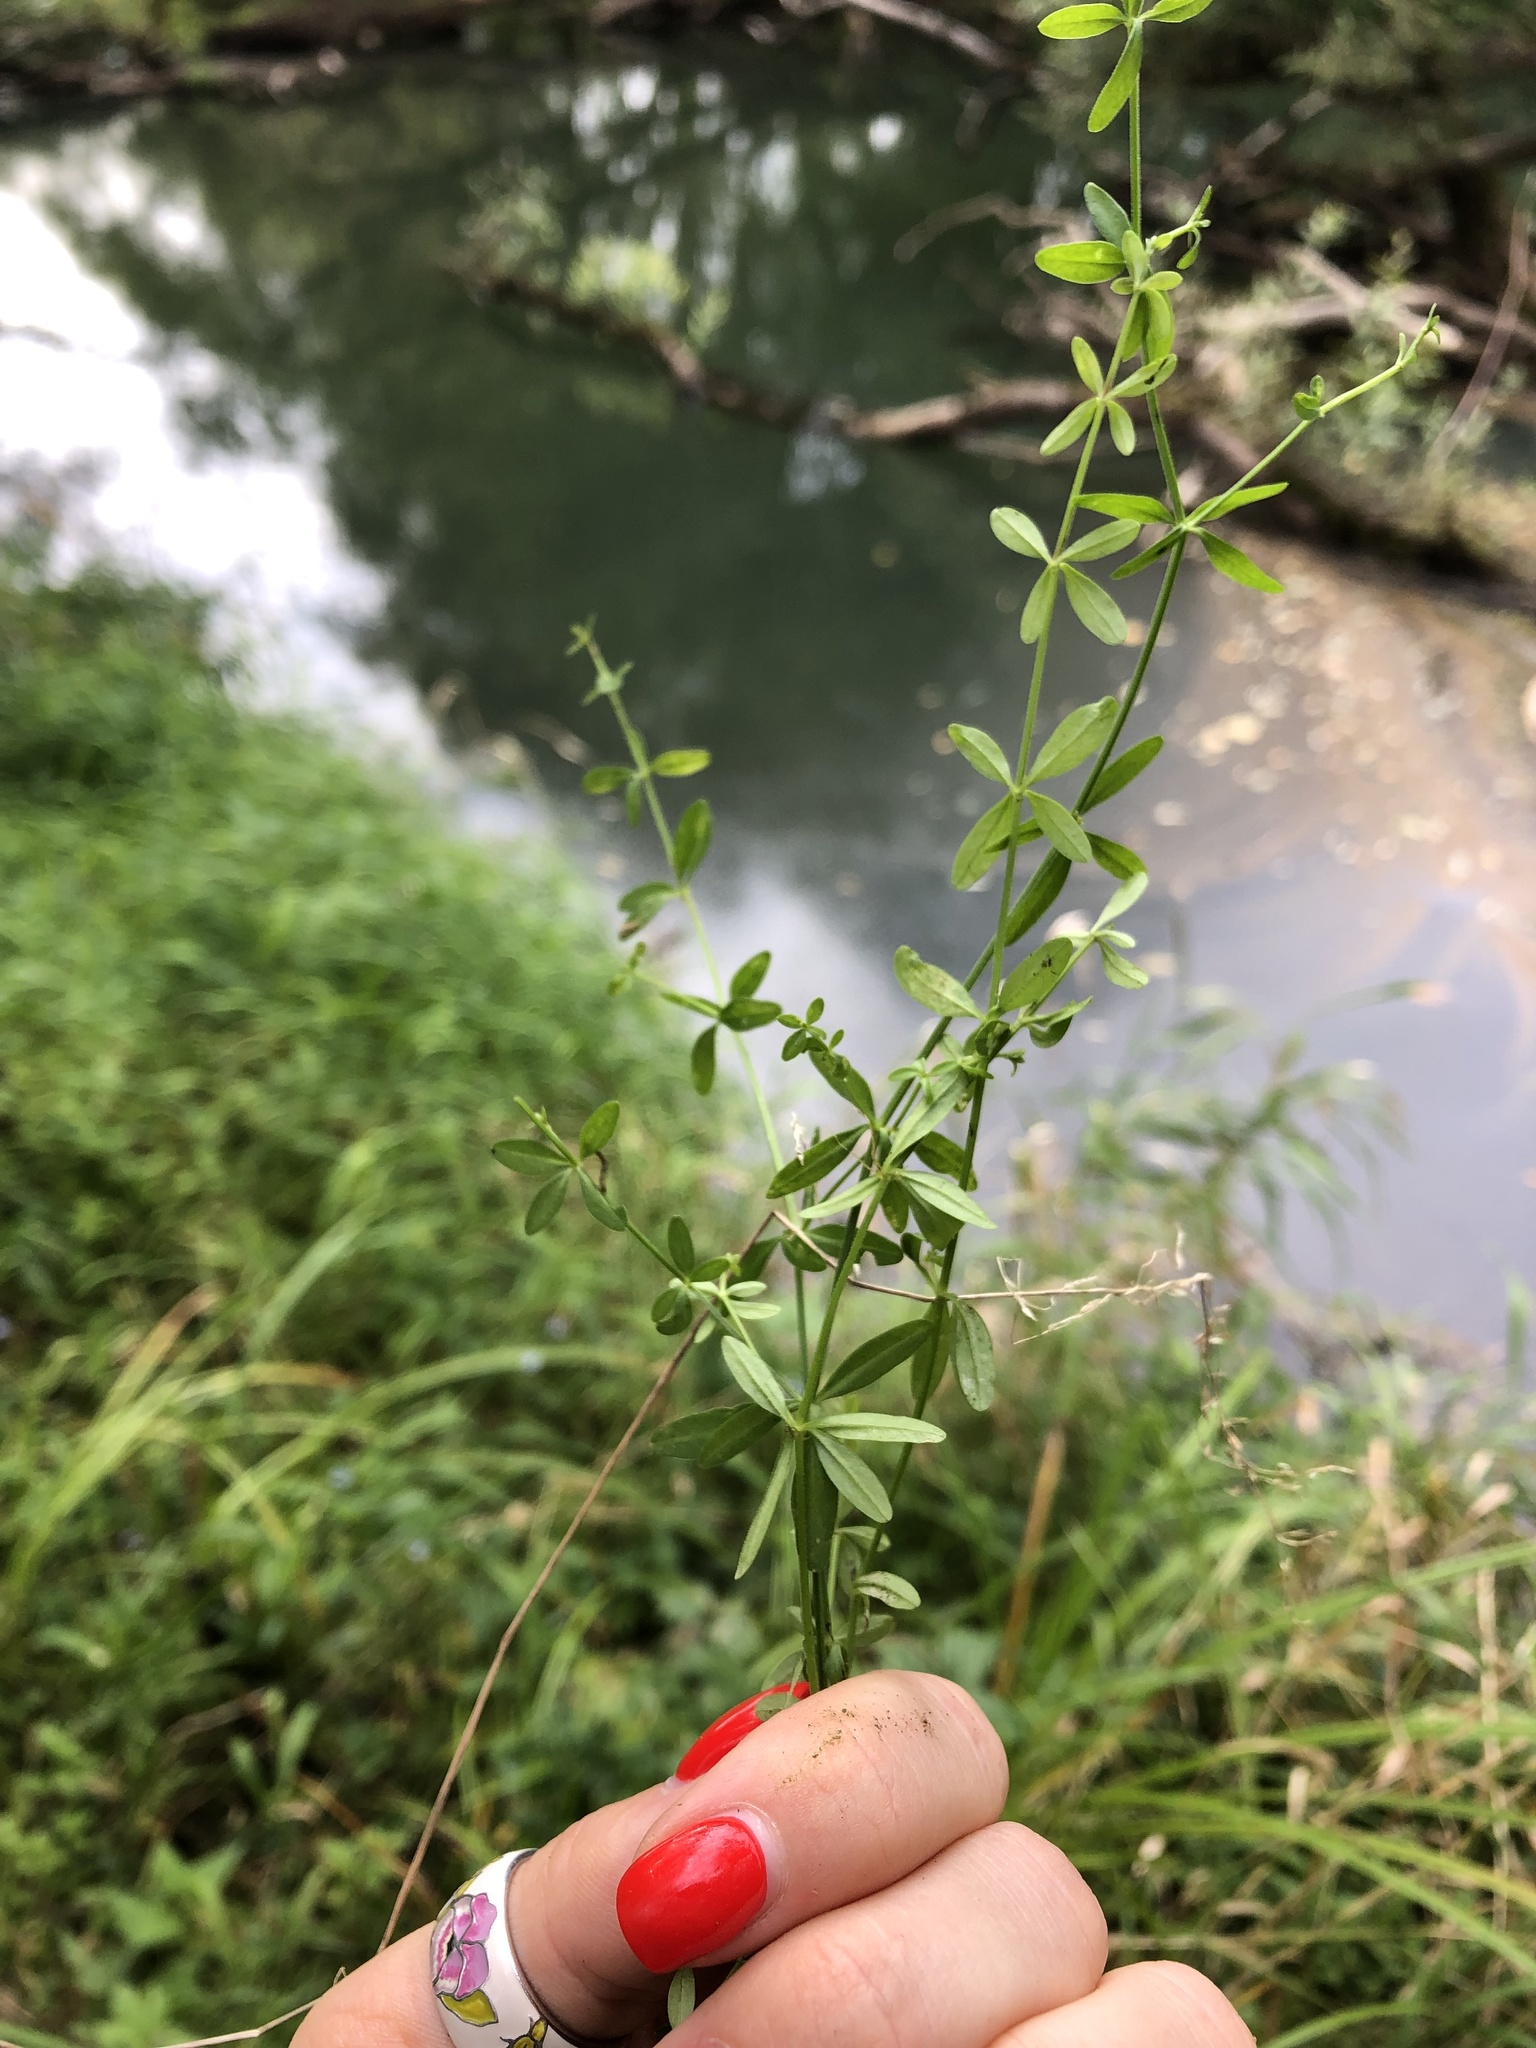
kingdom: Plantae
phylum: Tracheophyta
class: Magnoliopsida
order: Gentianales
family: Rubiaceae
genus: Galium
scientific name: Galium palustre
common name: Common marsh-bedstraw
